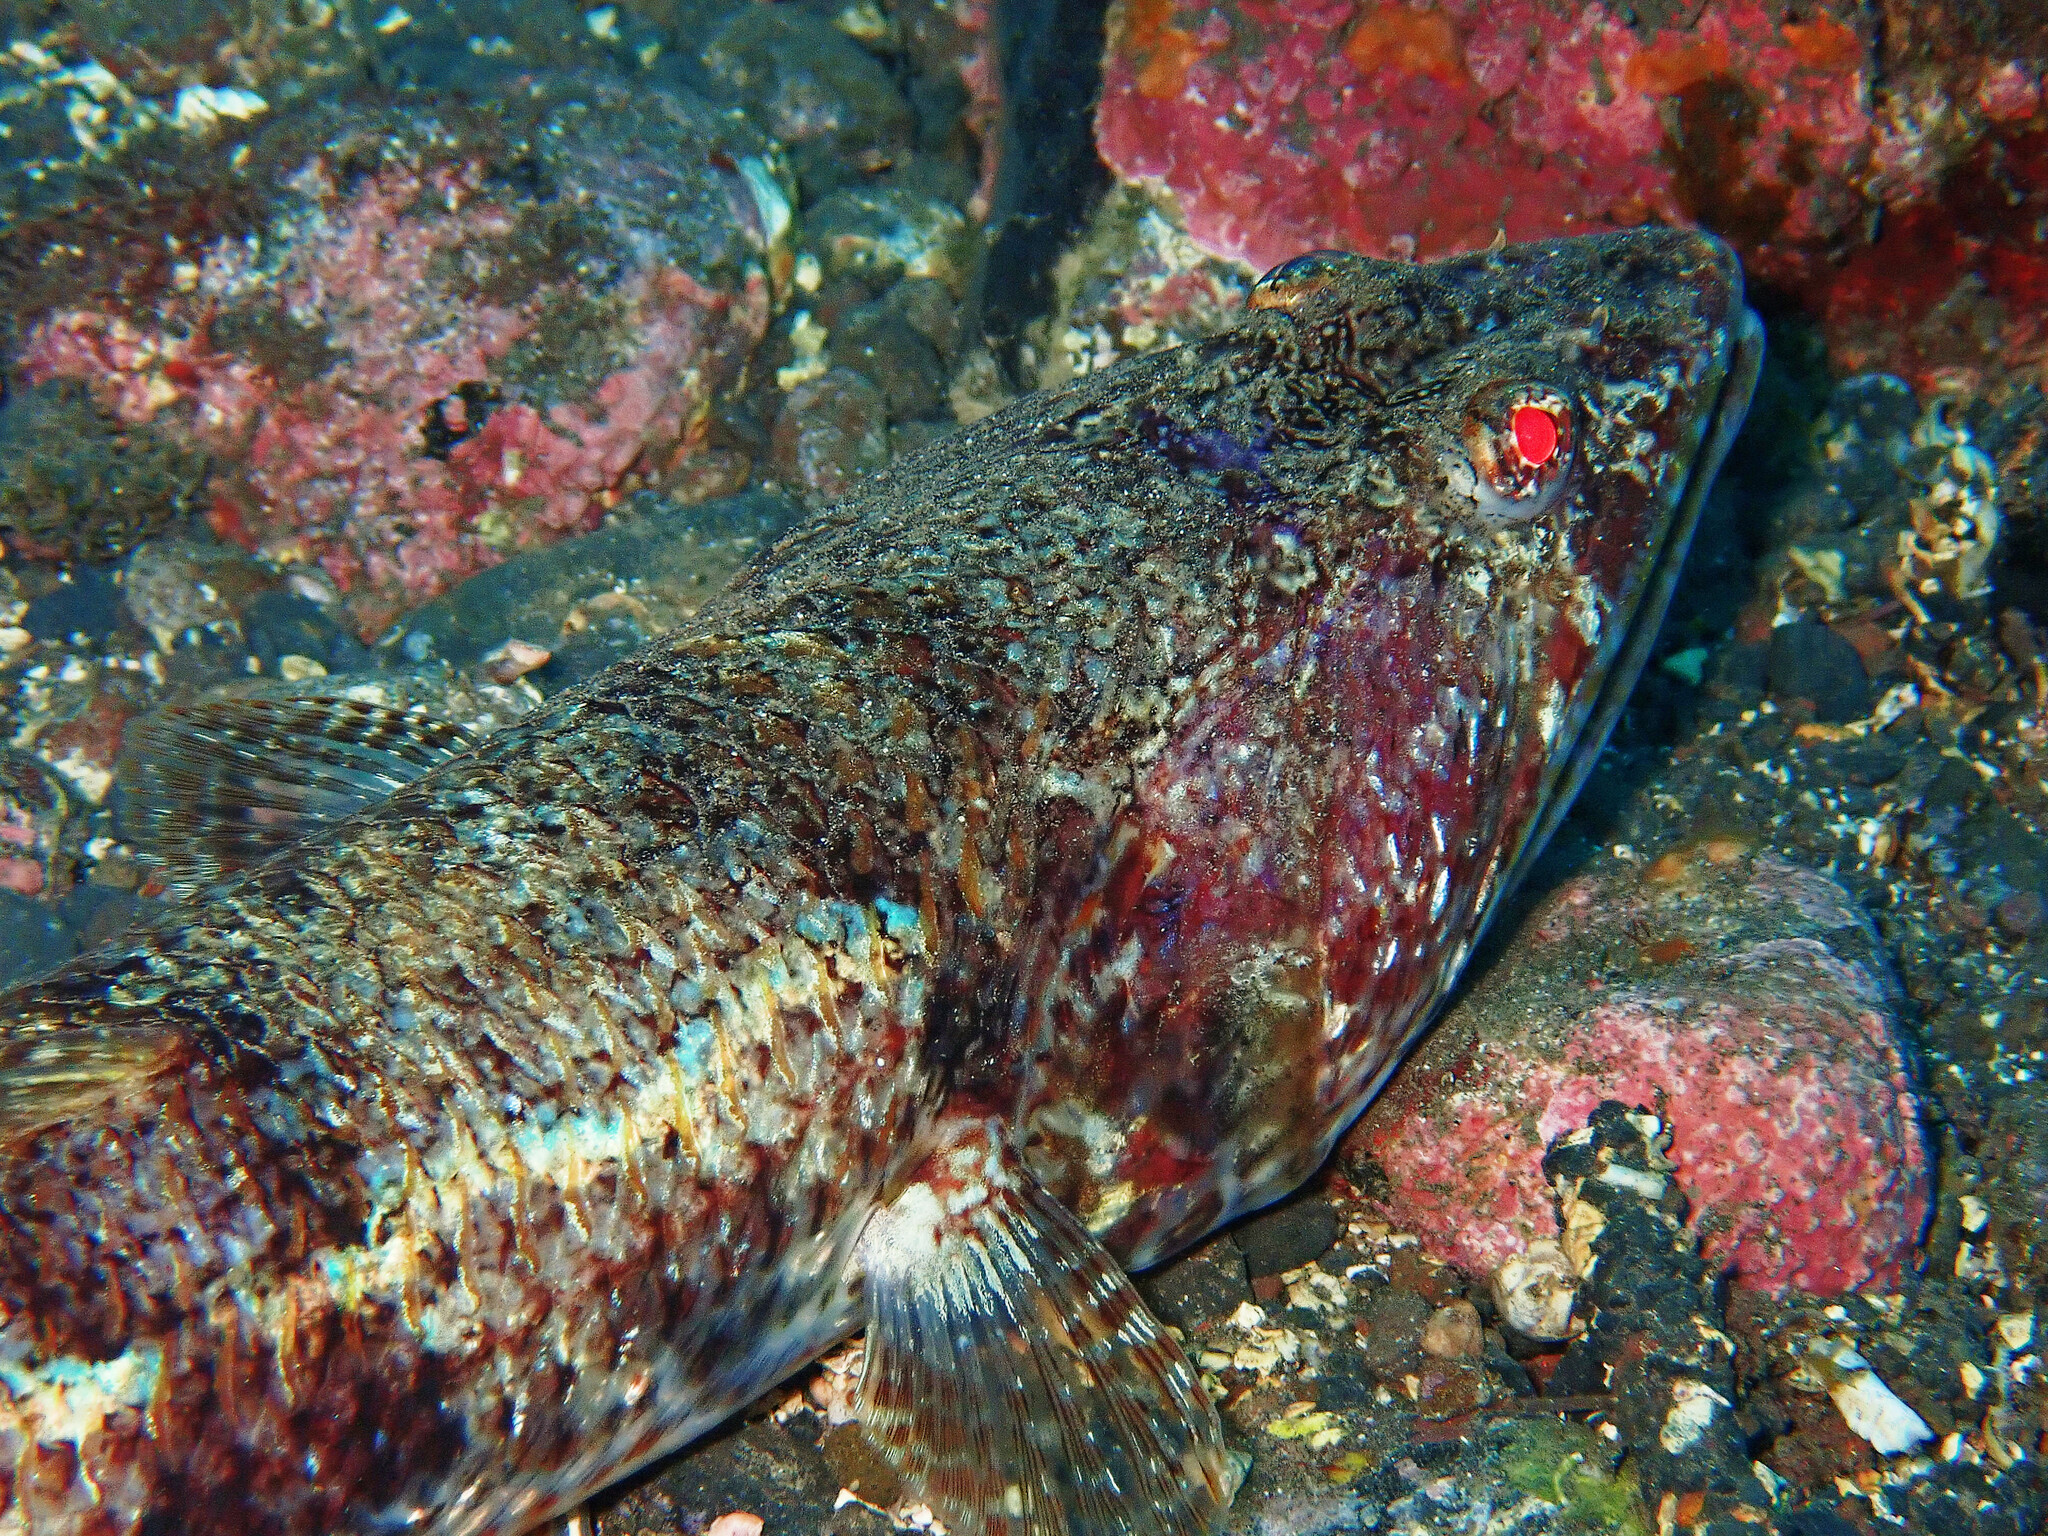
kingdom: Animalia
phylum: Chordata
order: Aulopiformes
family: Synodontidae
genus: Synodus
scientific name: Synodus synodus
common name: Red lizardfish
